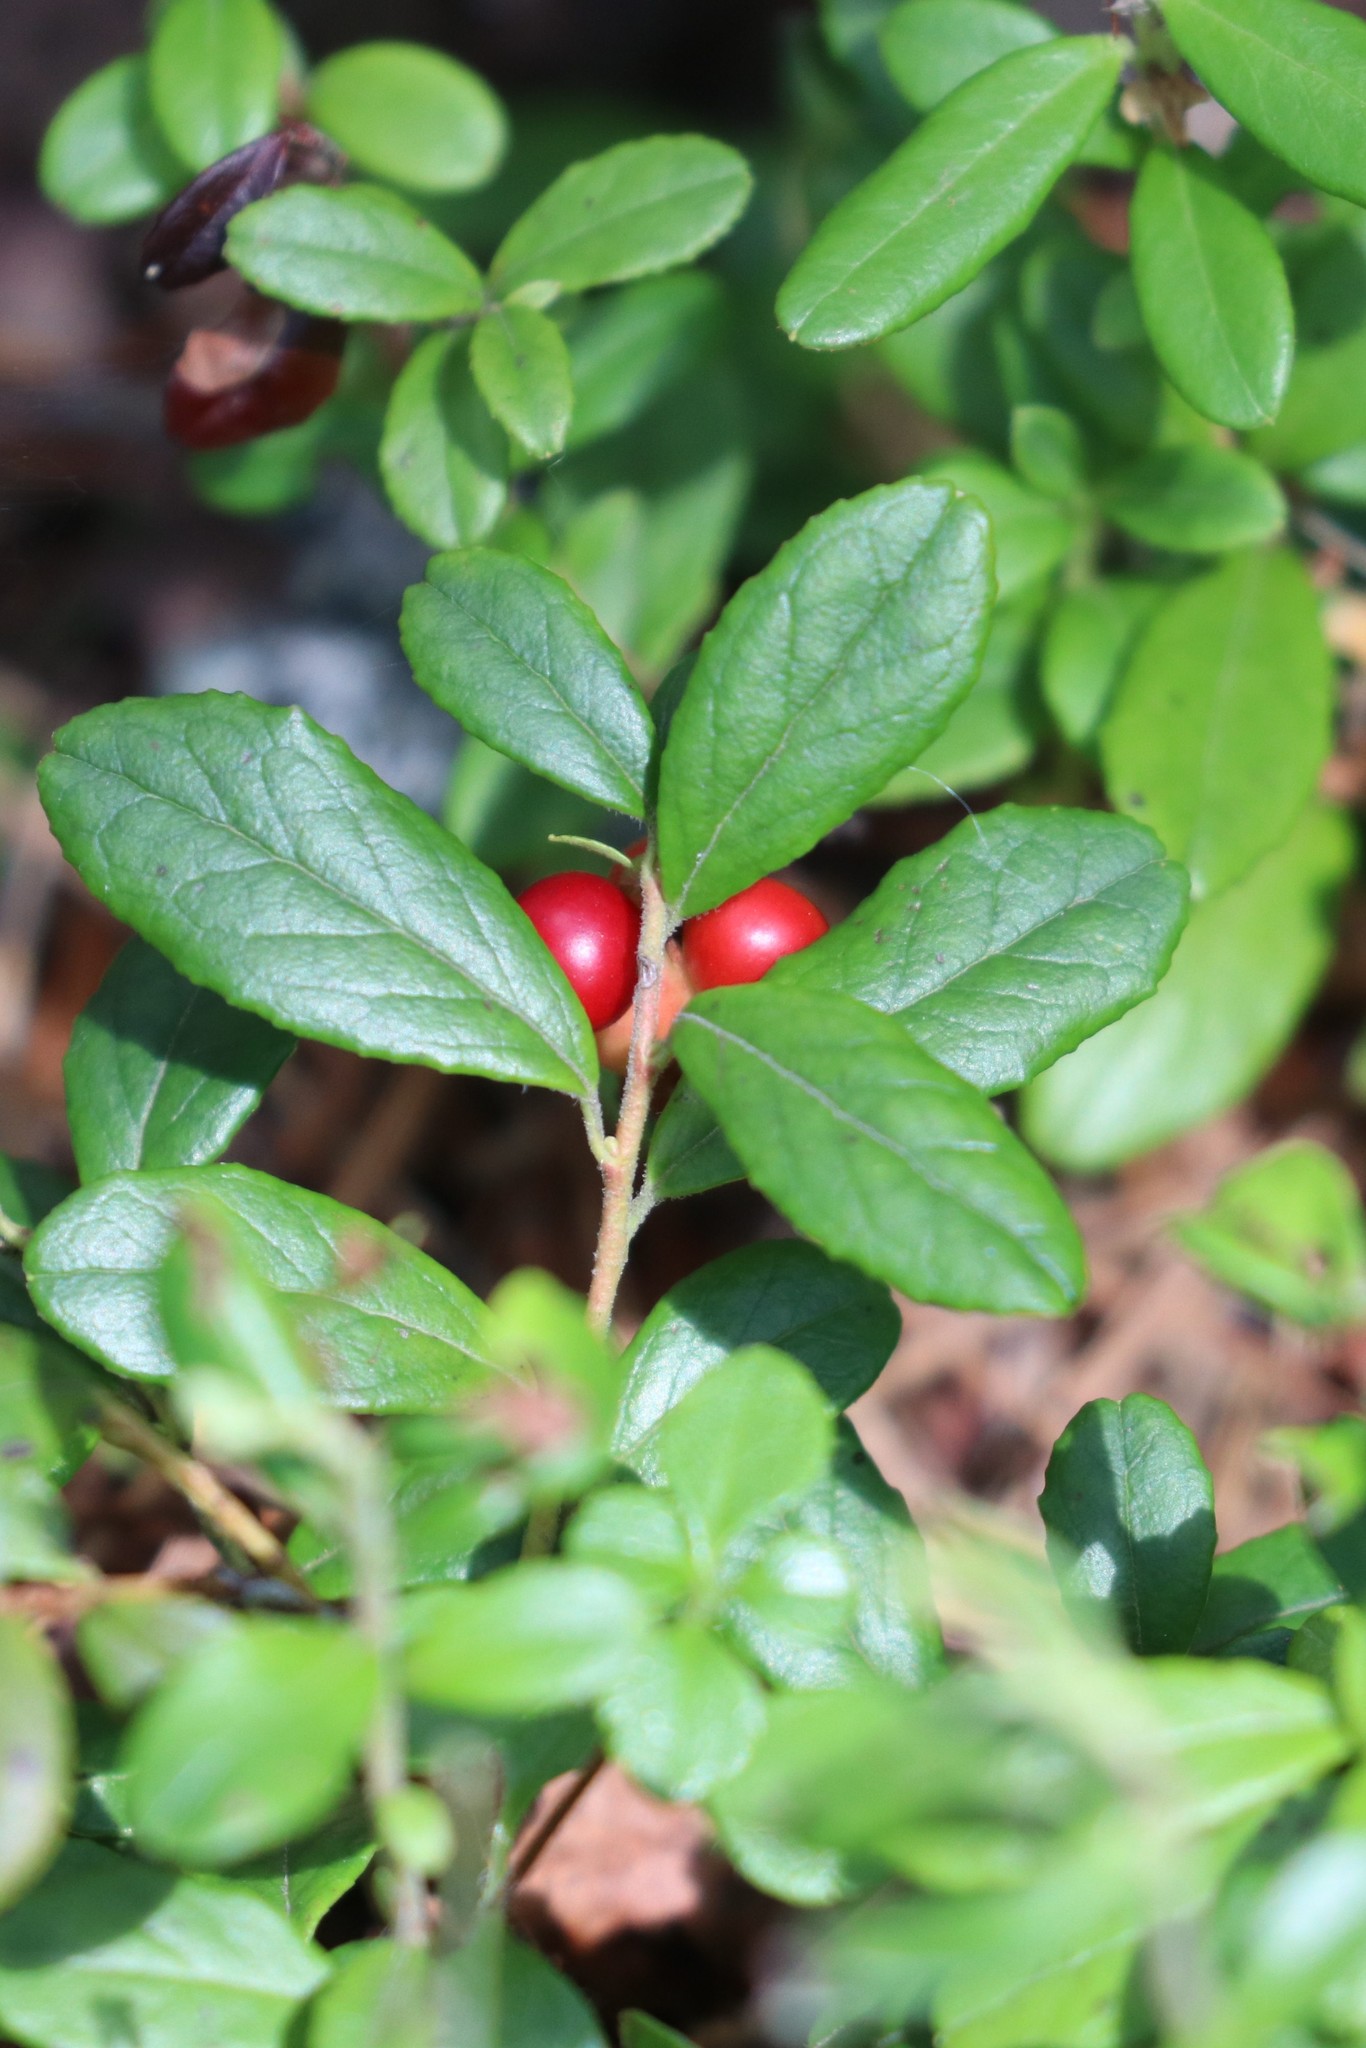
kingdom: Plantae
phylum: Tracheophyta
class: Magnoliopsida
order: Ericales
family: Ericaceae
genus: Vaccinium
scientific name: Vaccinium vitis-idaea
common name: Cowberry
